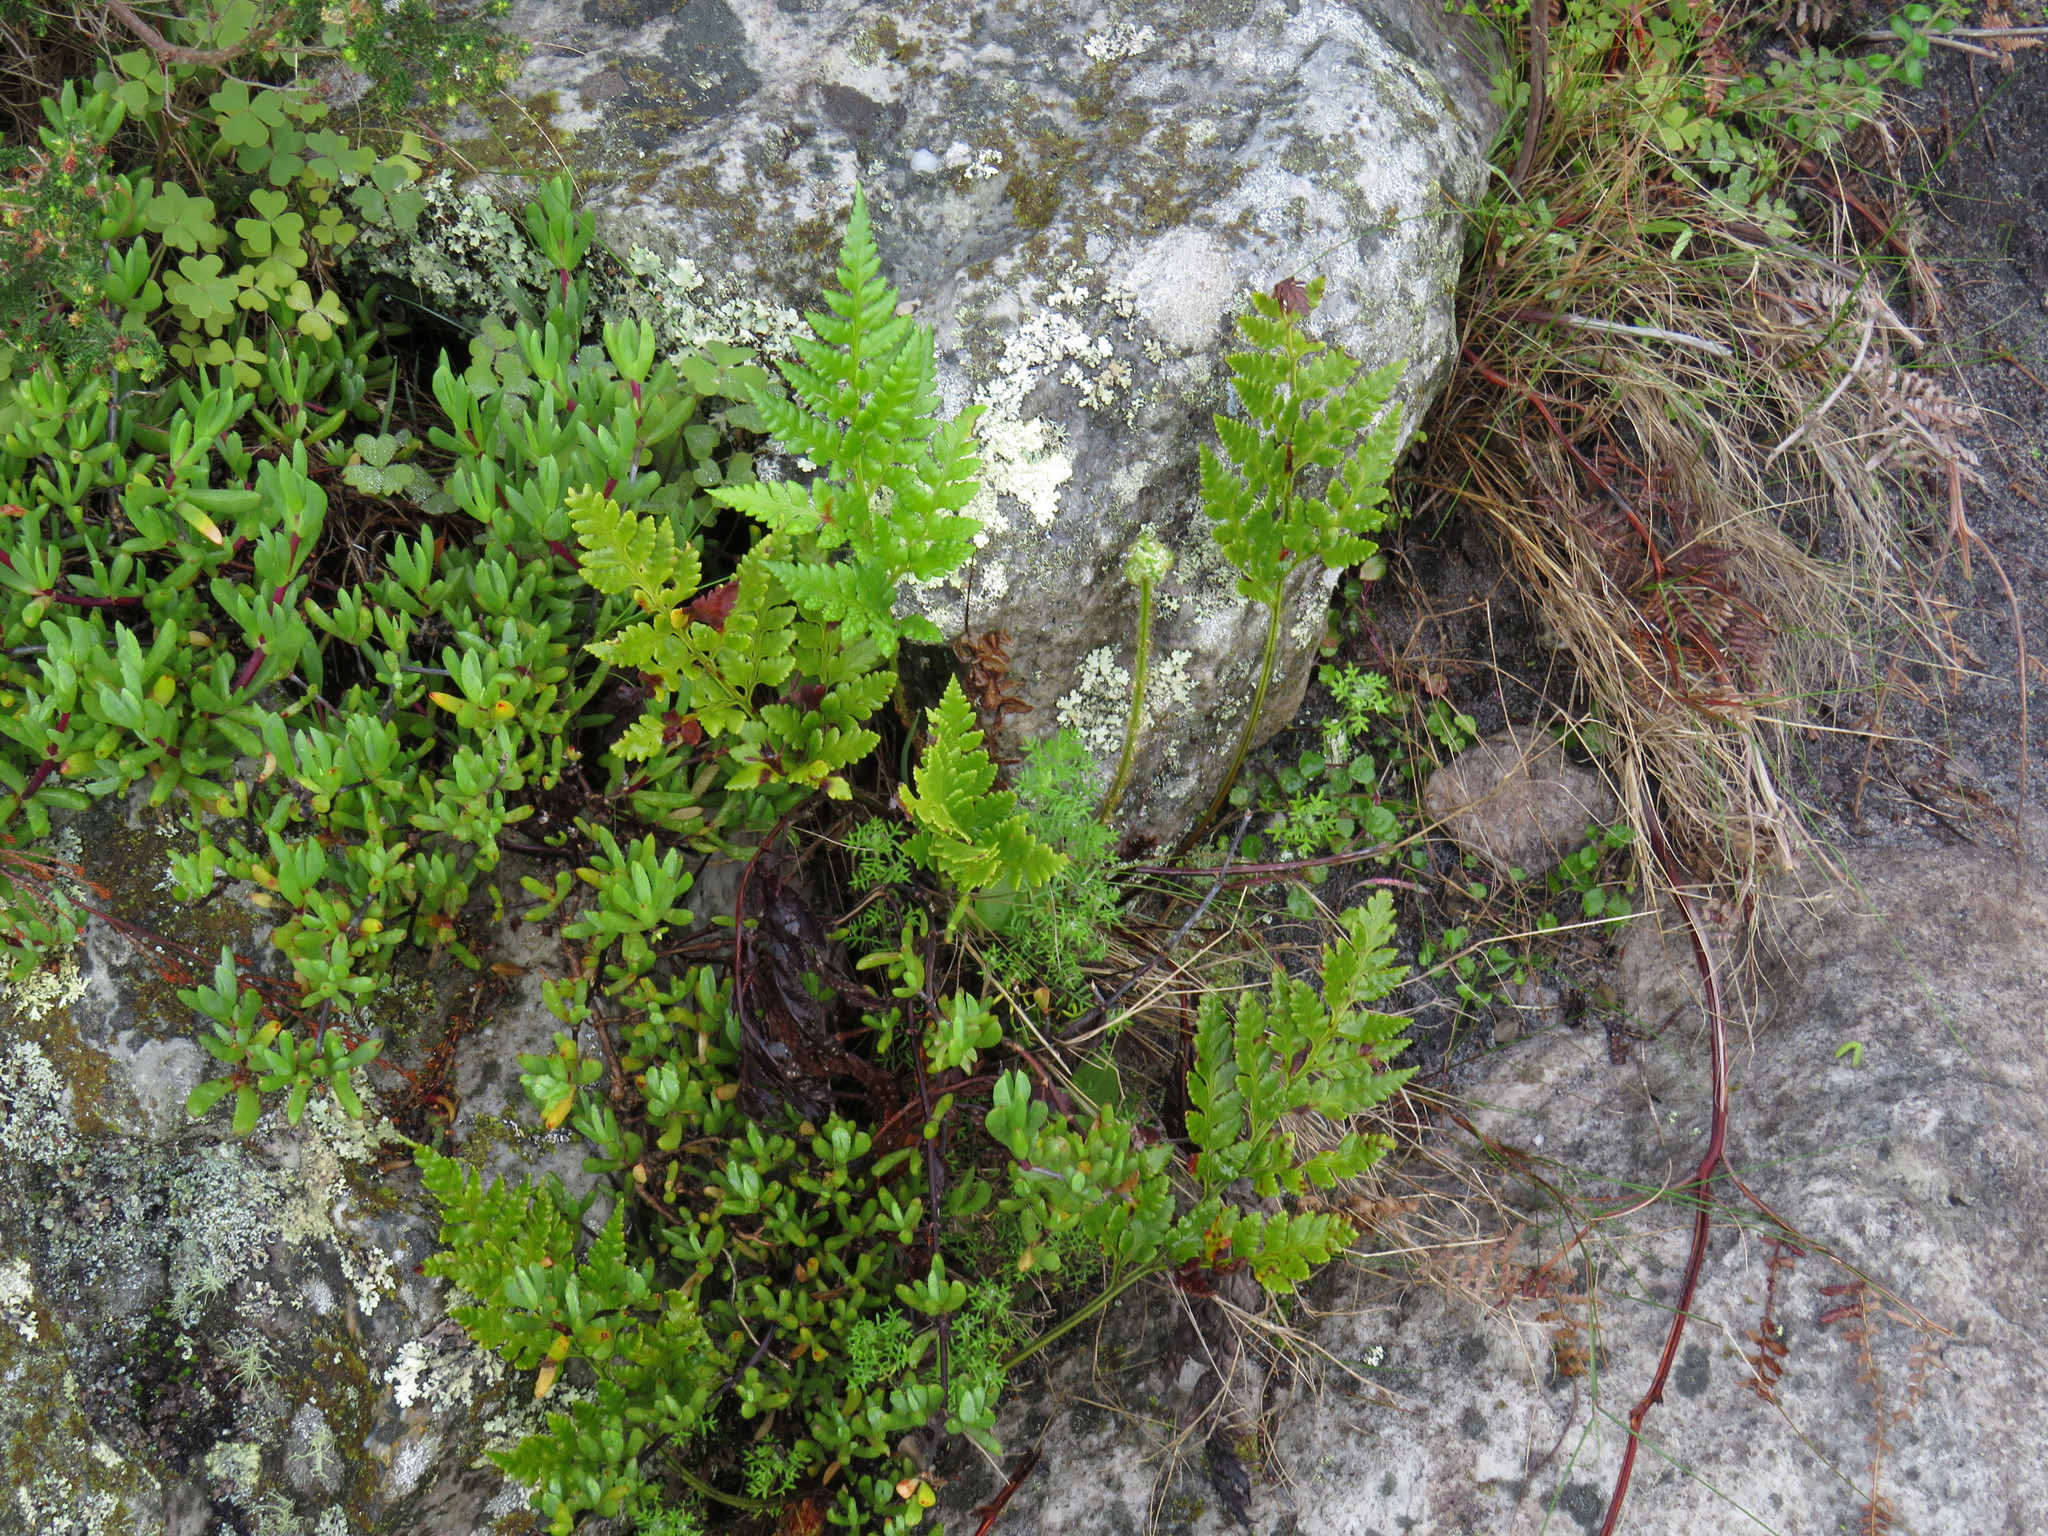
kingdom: Plantae
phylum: Tracheophyta
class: Polypodiopsida
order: Polypodiales
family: Dryopteridaceae
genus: Rumohra
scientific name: Rumohra adiantiformis
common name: Leather fern
